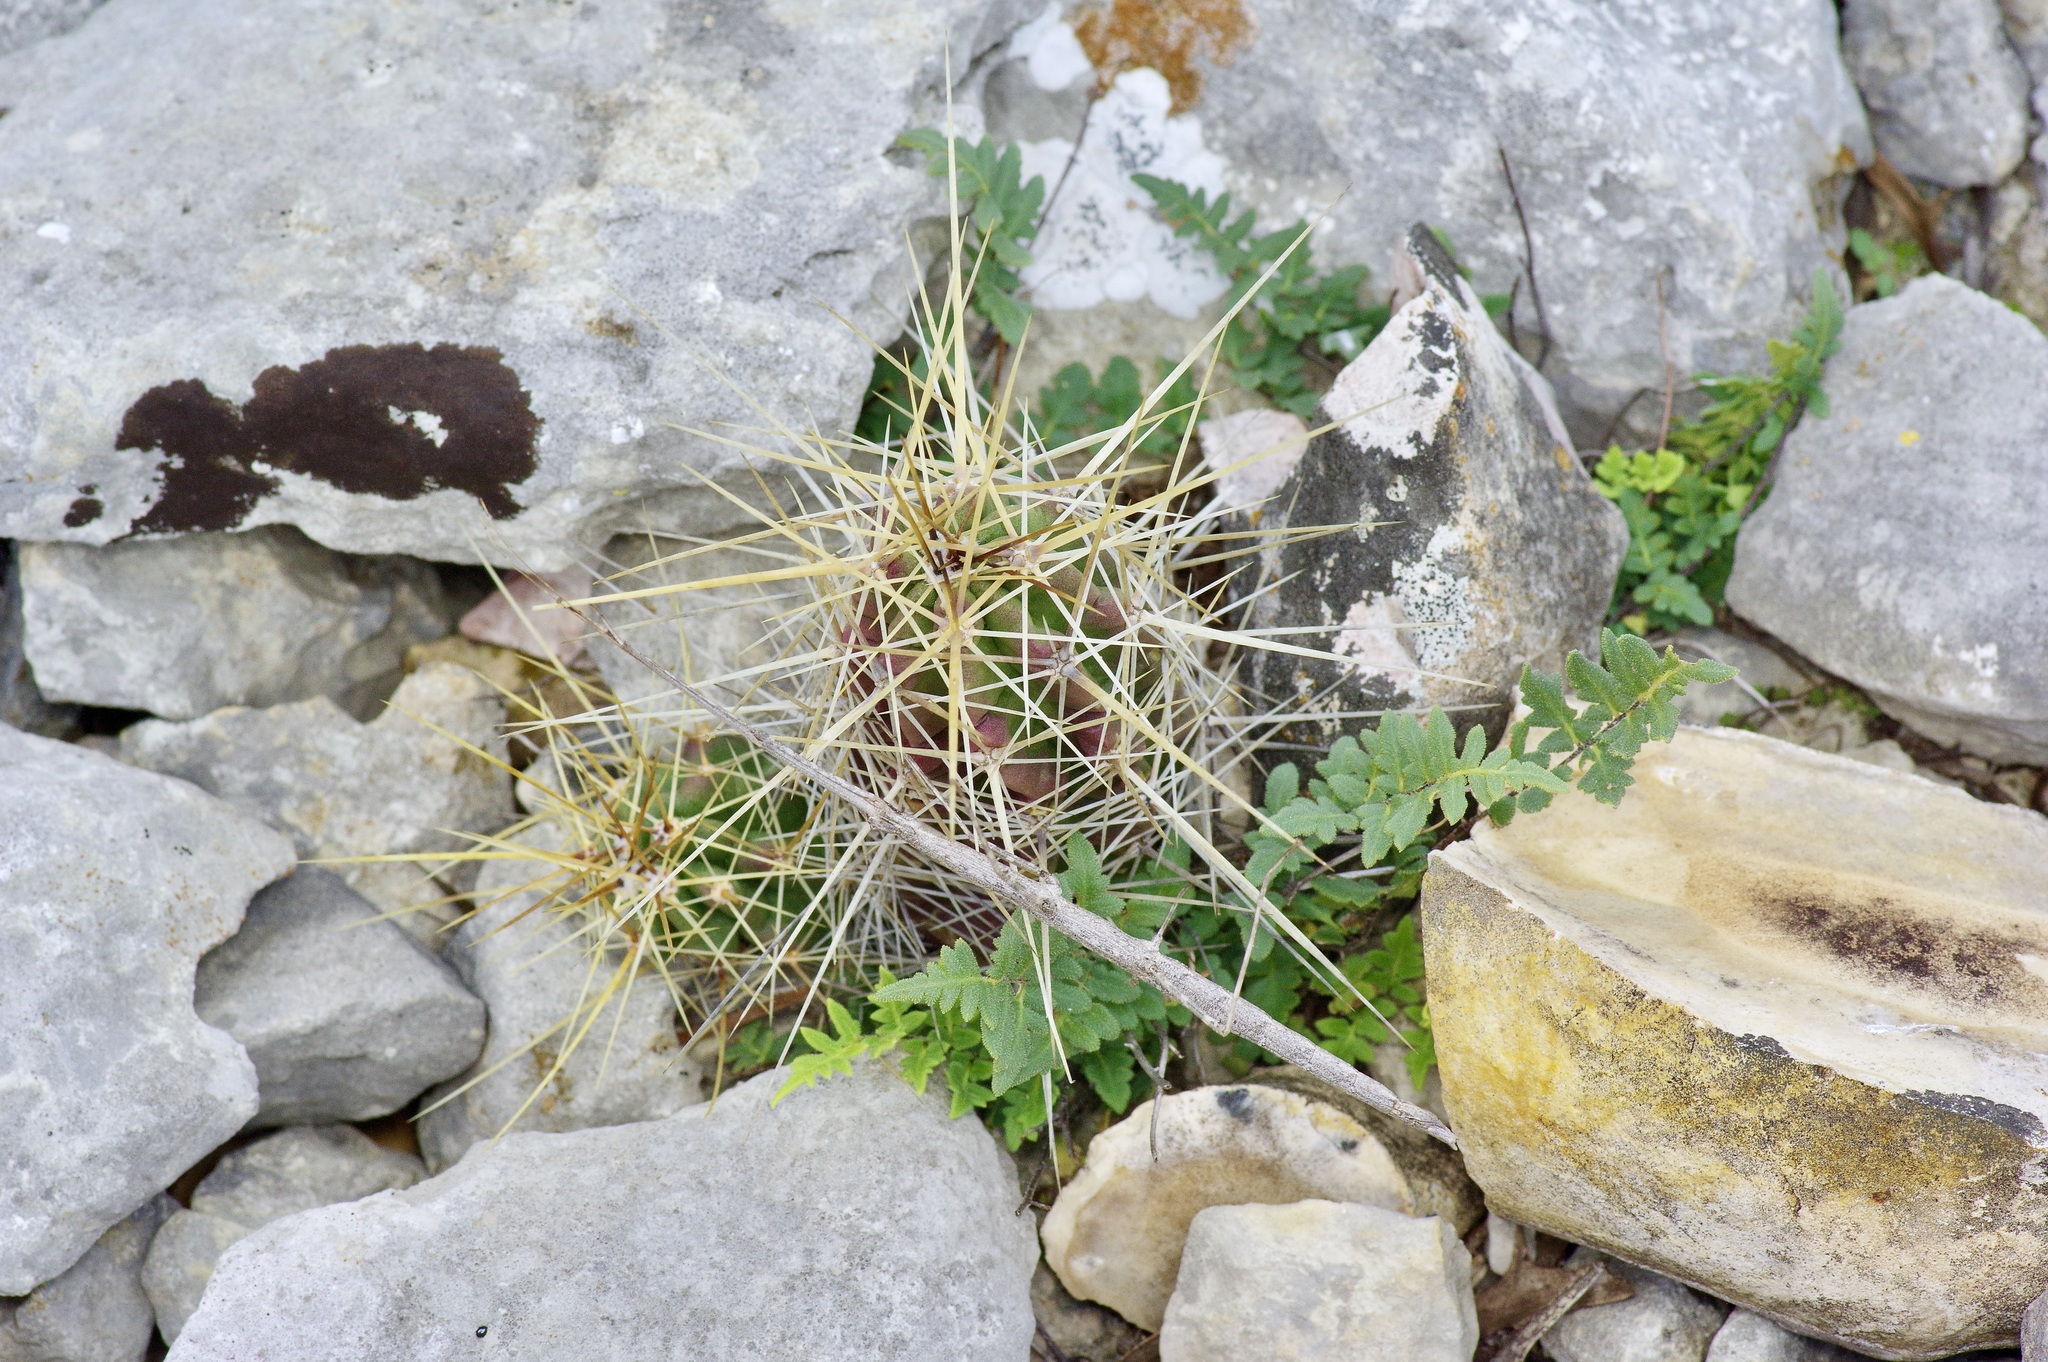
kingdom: Plantae
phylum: Tracheophyta
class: Magnoliopsida
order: Caryophyllales
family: Cactaceae
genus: Echinocereus
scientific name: Echinocereus enneacanthus
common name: Pitaya
